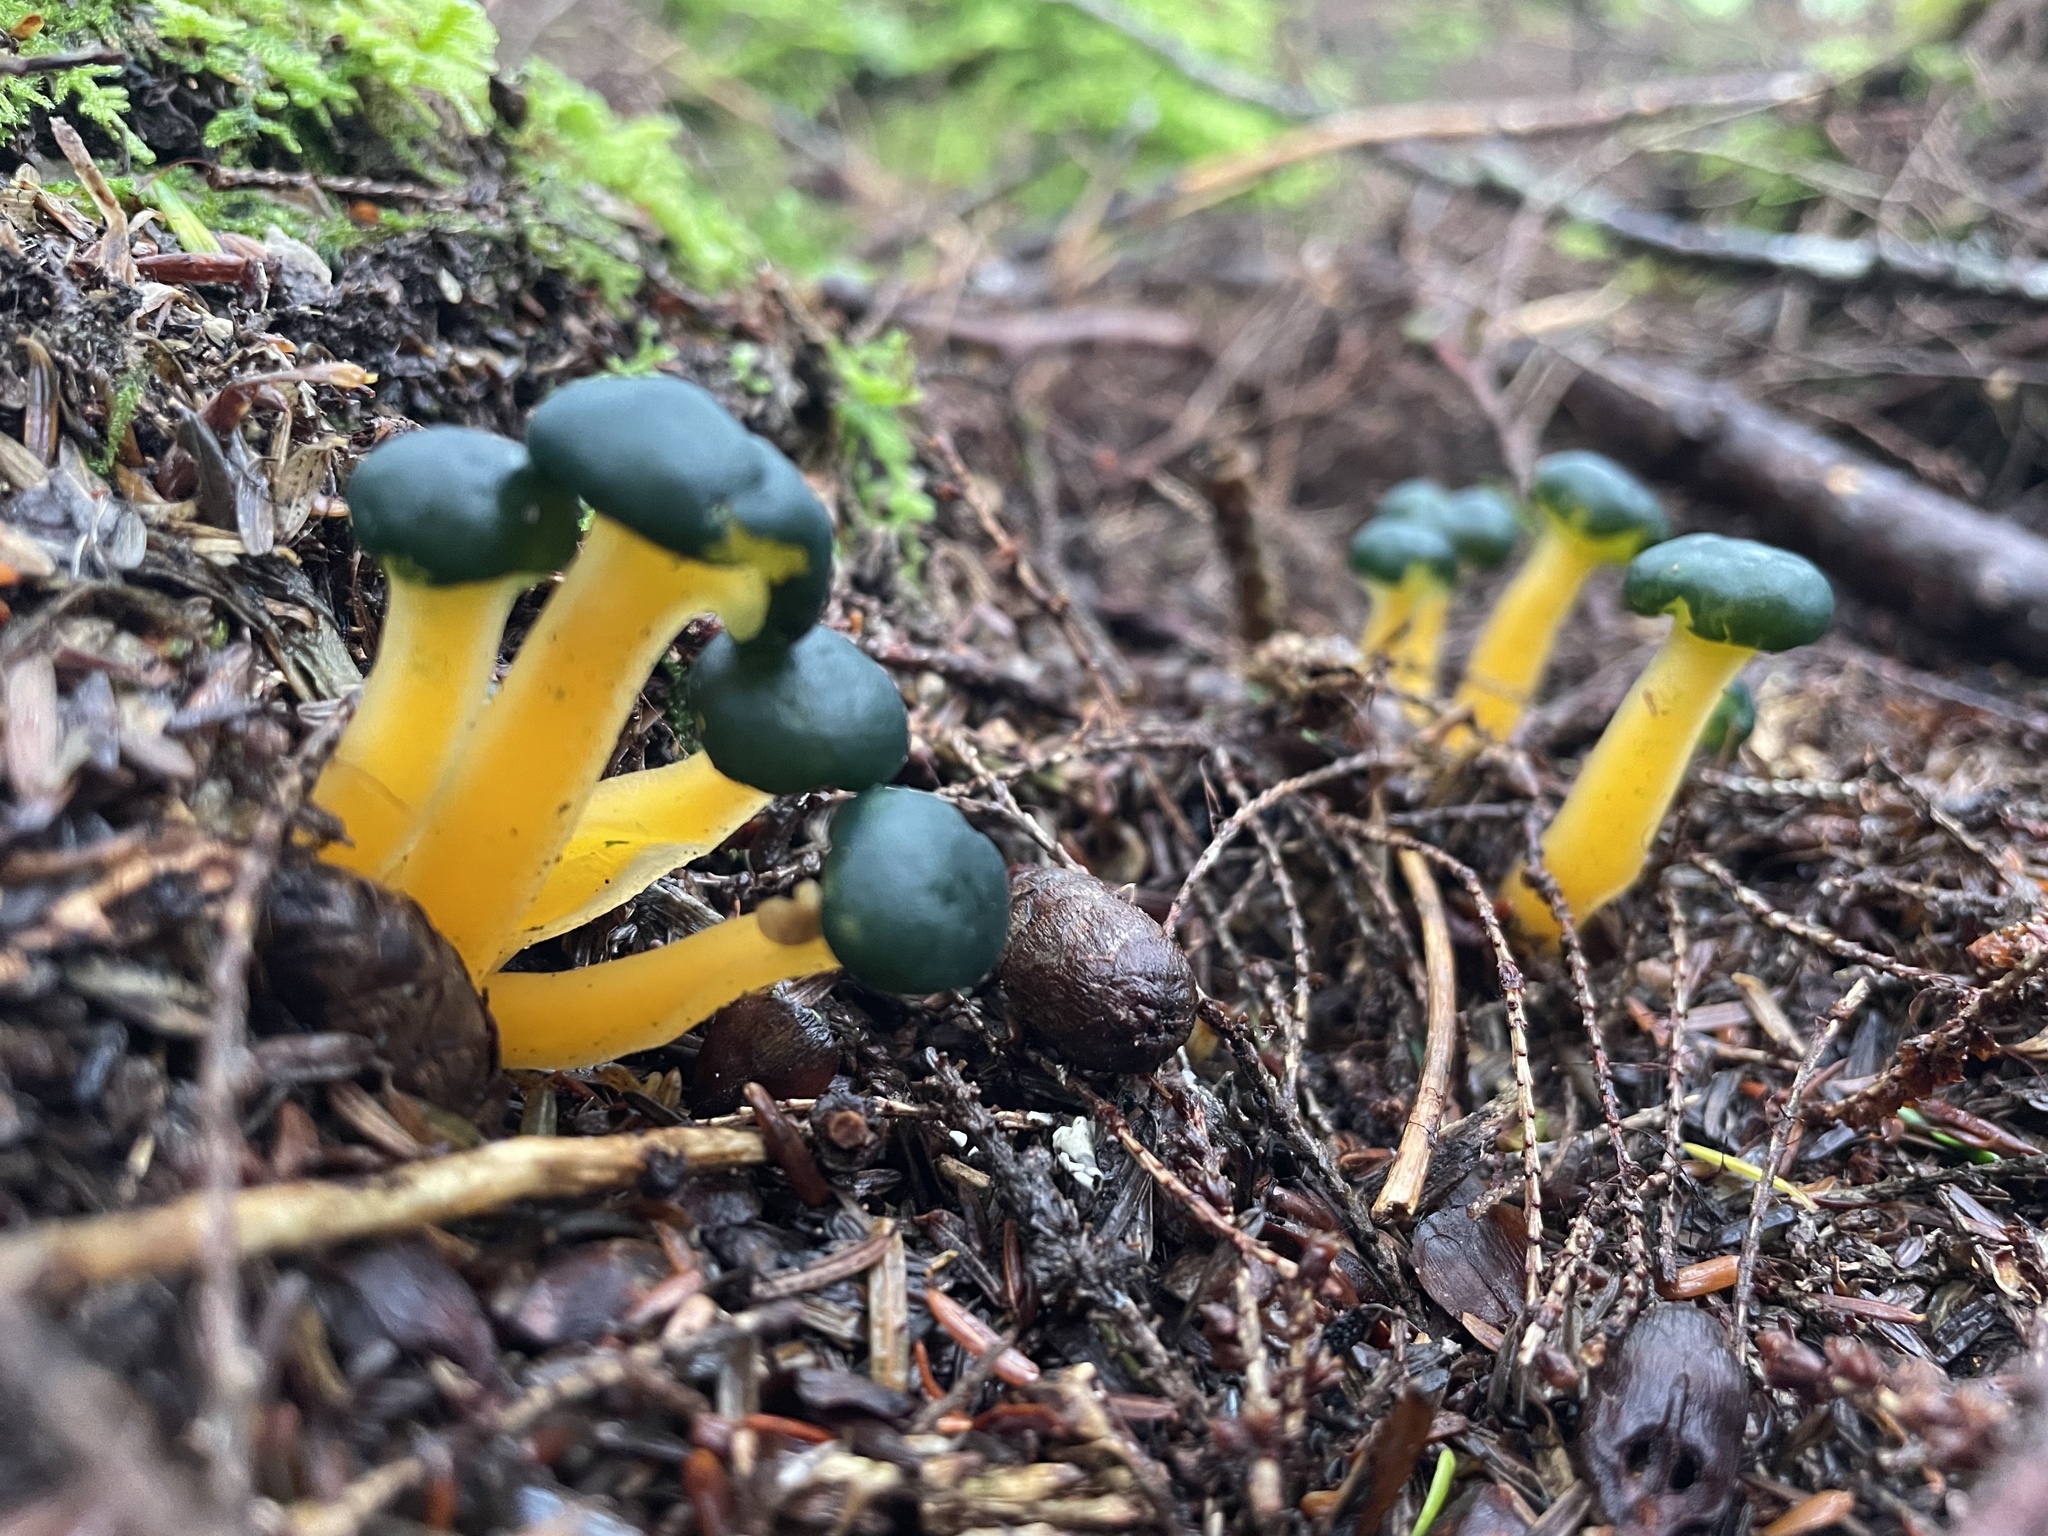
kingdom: Fungi
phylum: Ascomycota
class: Leotiomycetes
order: Leotiales
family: Leotiaceae
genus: Leotia
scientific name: Leotia lubrica
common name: Jellybaby
